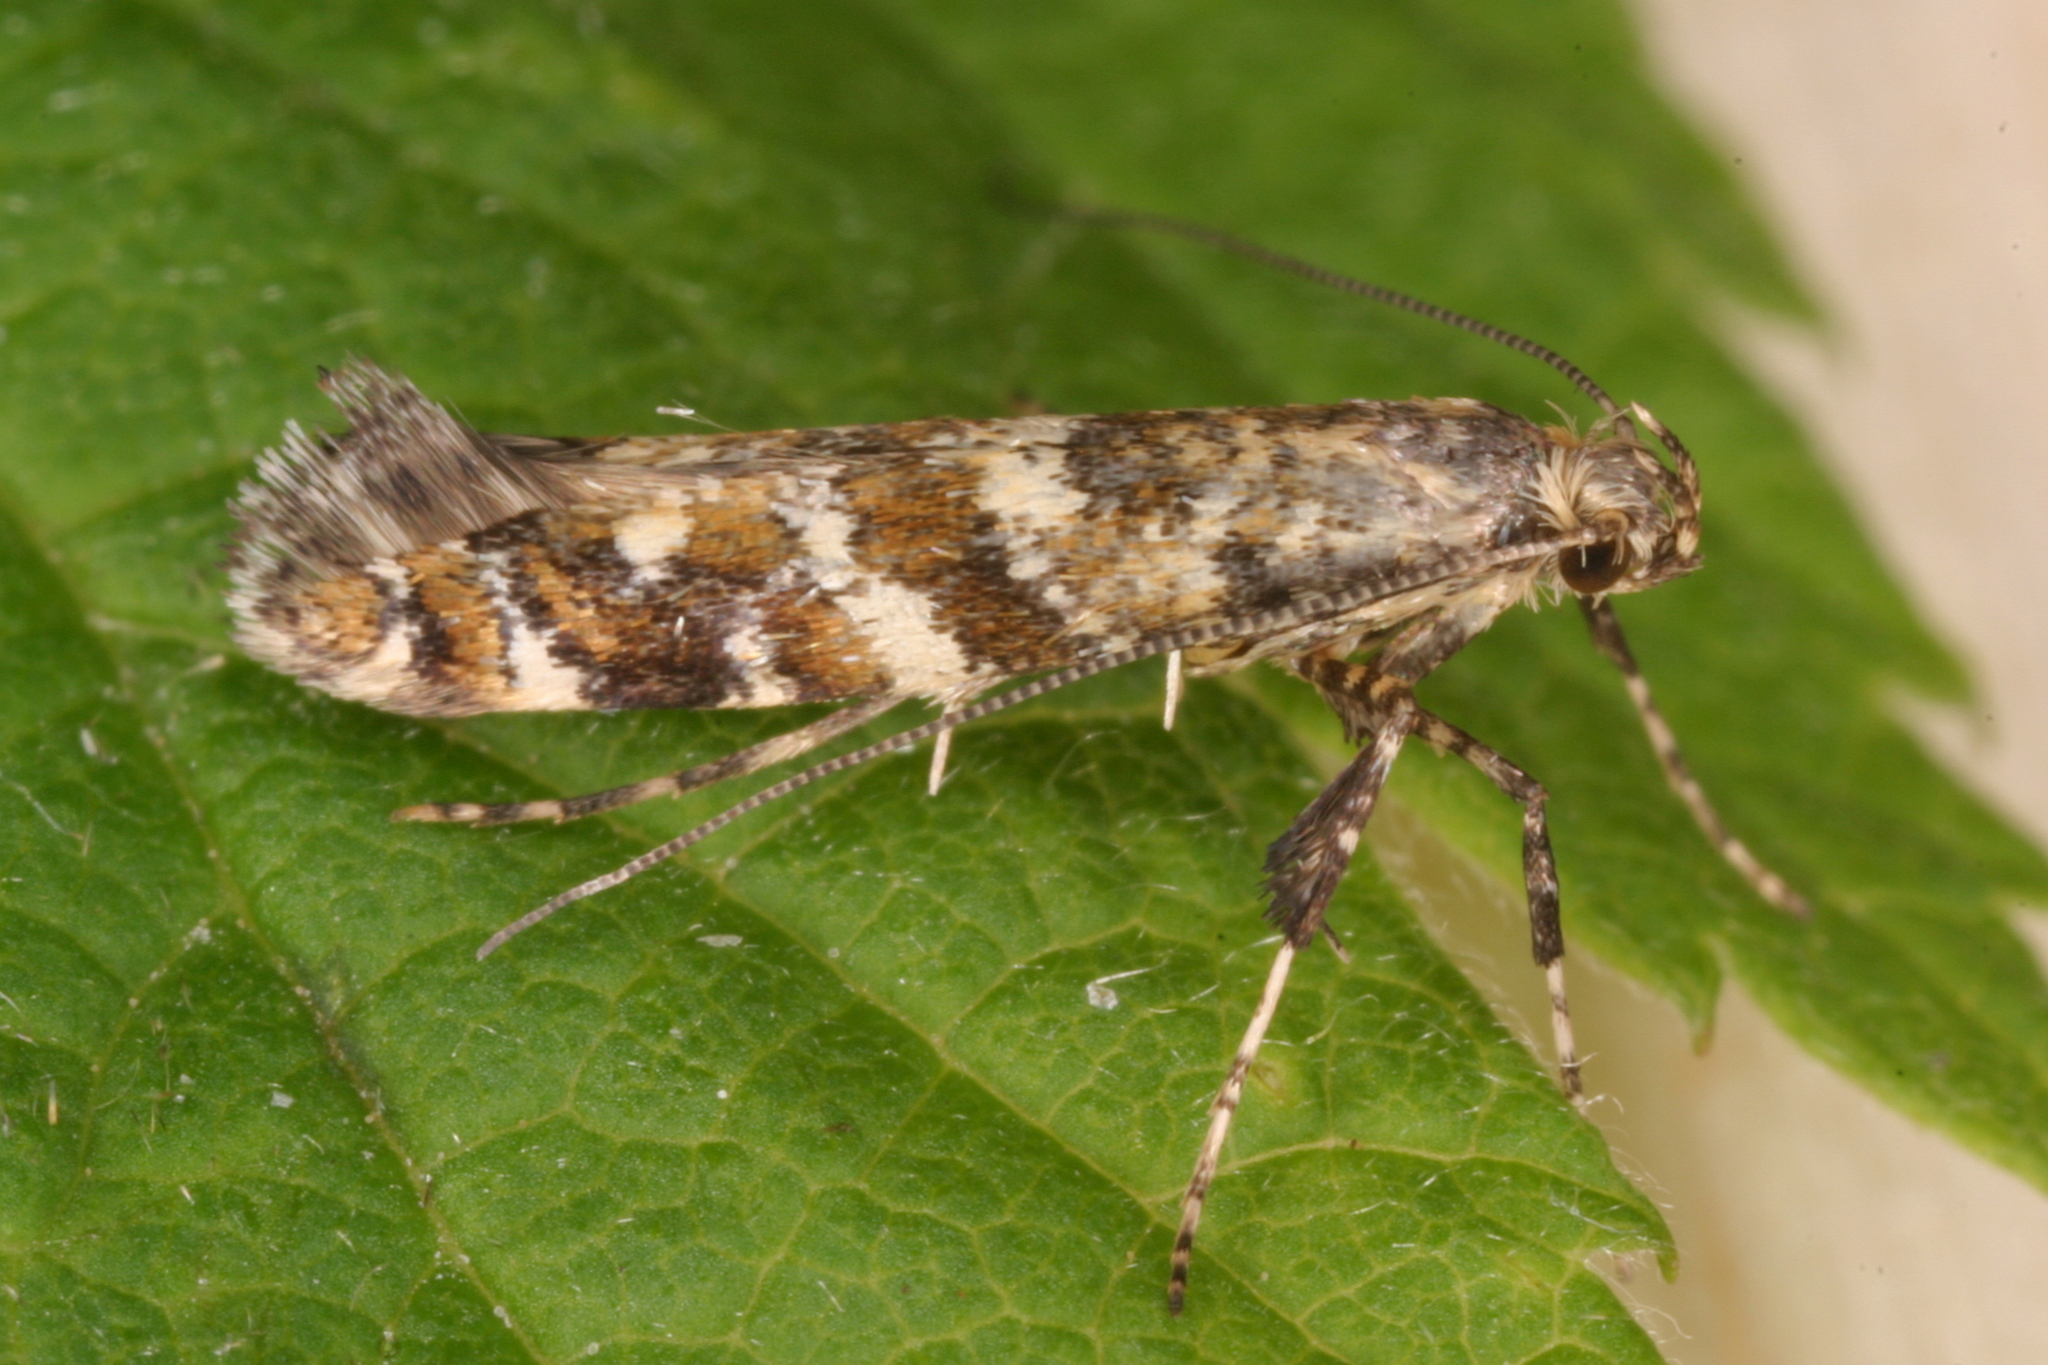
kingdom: Animalia
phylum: Arthropoda
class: Insecta
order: Lepidoptera
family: Gracillariidae
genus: Gracillaria
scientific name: Gracillaria syringella
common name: Common slender
